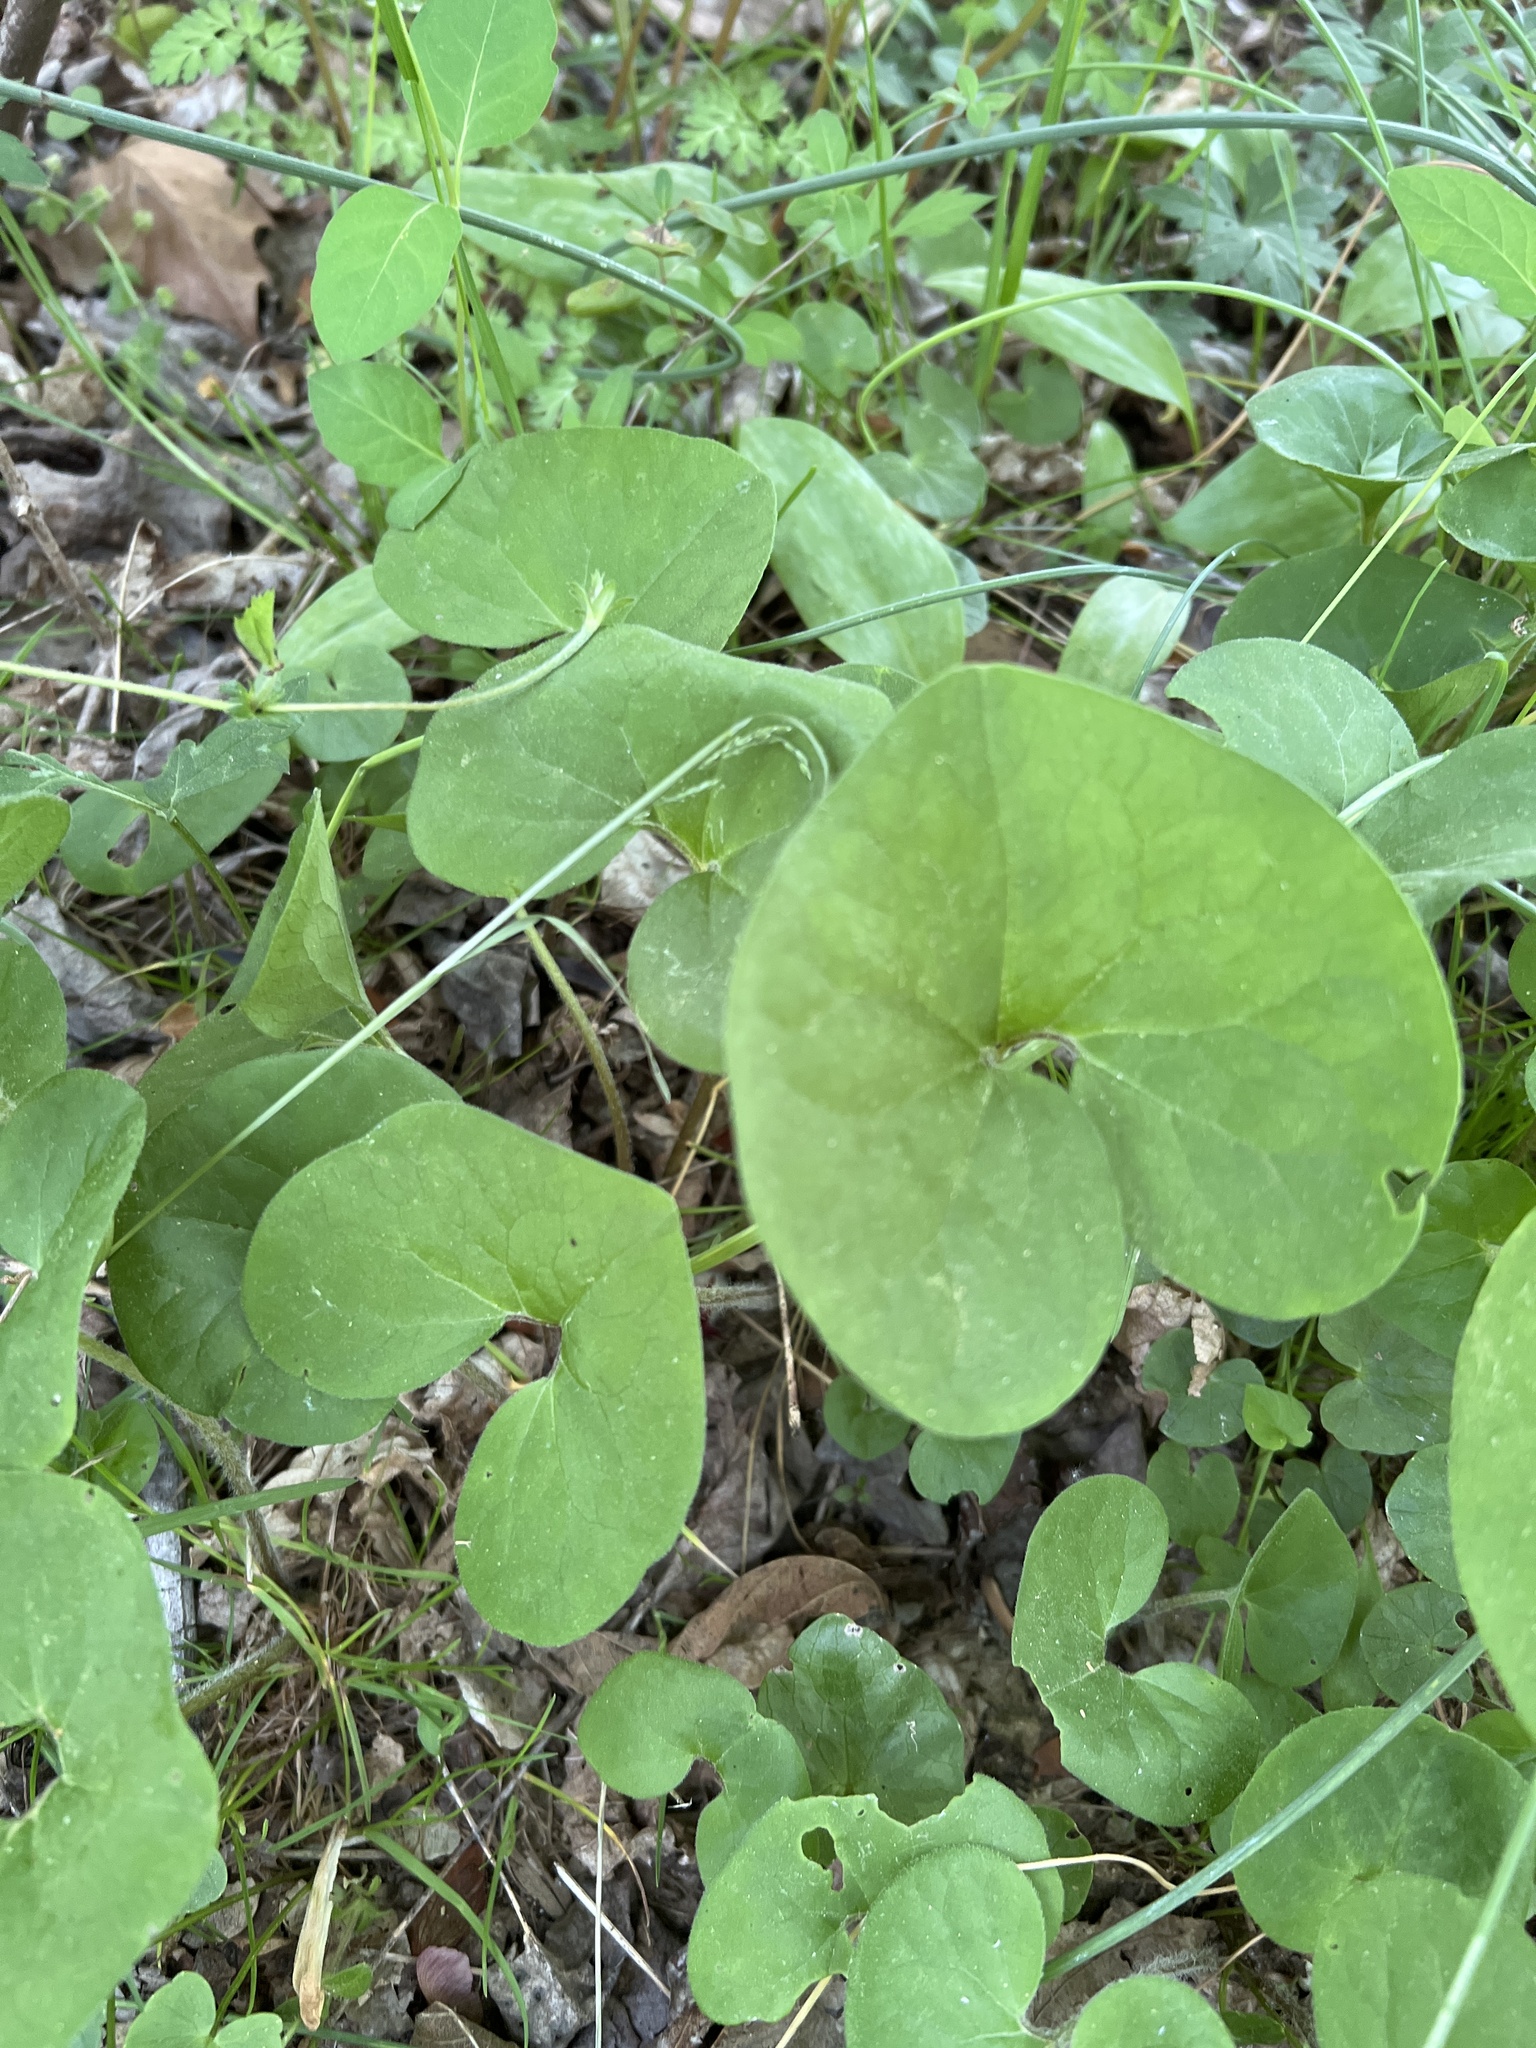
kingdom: Plantae
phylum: Tracheophyta
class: Magnoliopsida
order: Piperales
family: Aristolochiaceae
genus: Asarum
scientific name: Asarum canadense
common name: Wild ginger
